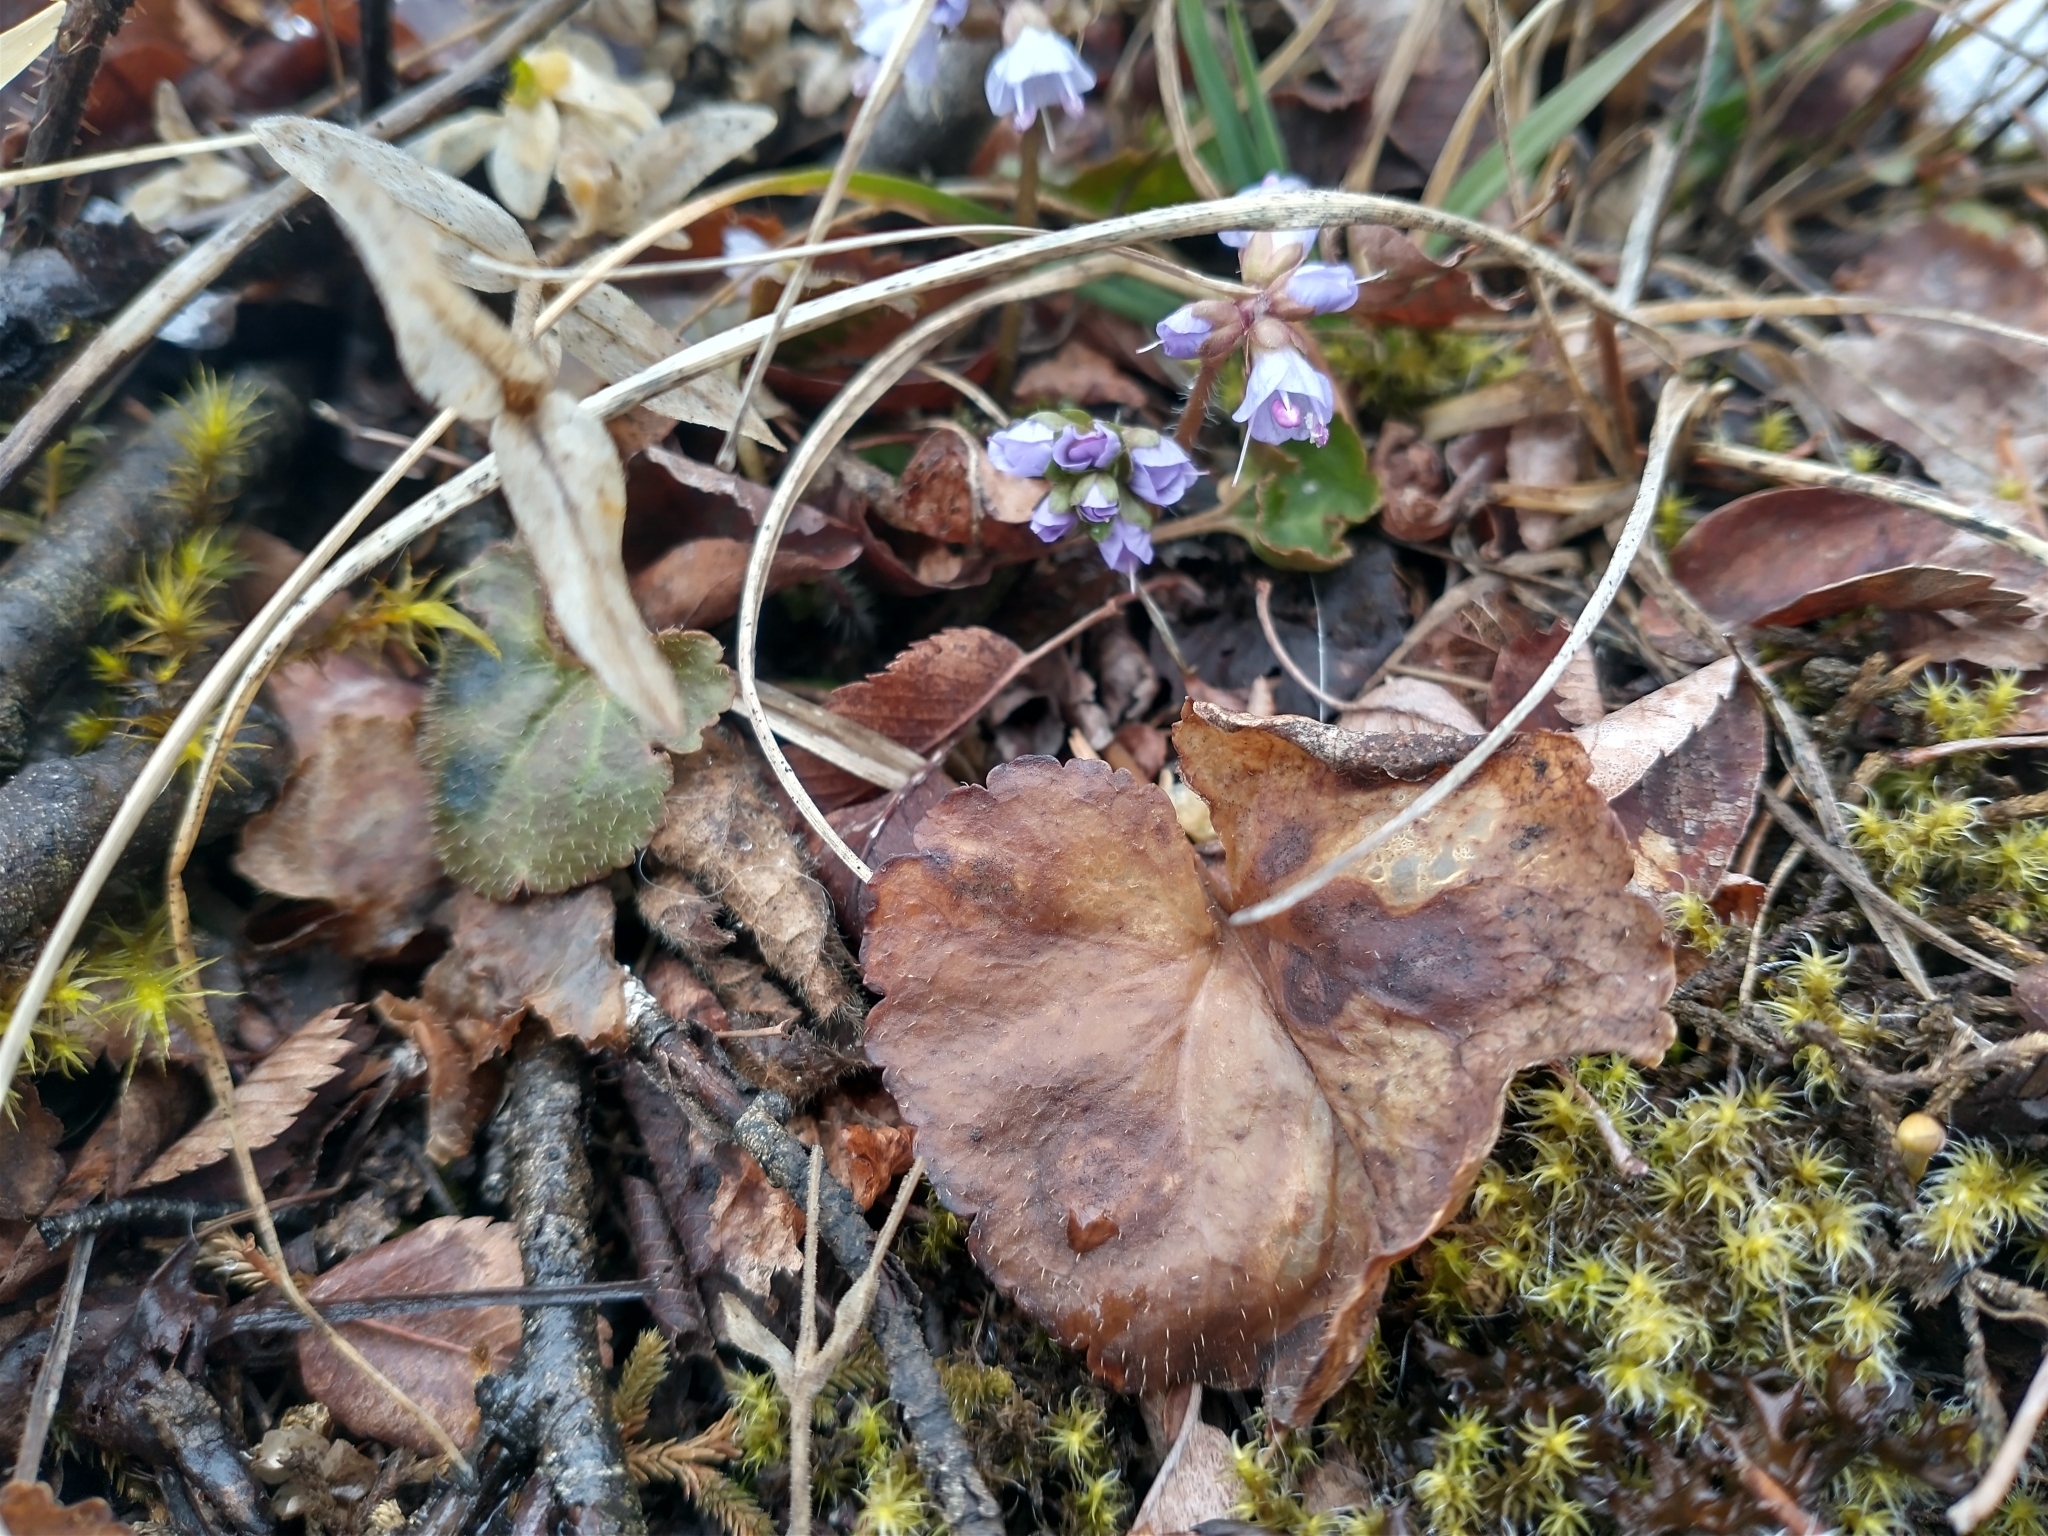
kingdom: Plantae
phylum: Tracheophyta
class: Magnoliopsida
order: Lamiales
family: Plantaginaceae
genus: Synthyris
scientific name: Synthyris reniformis
